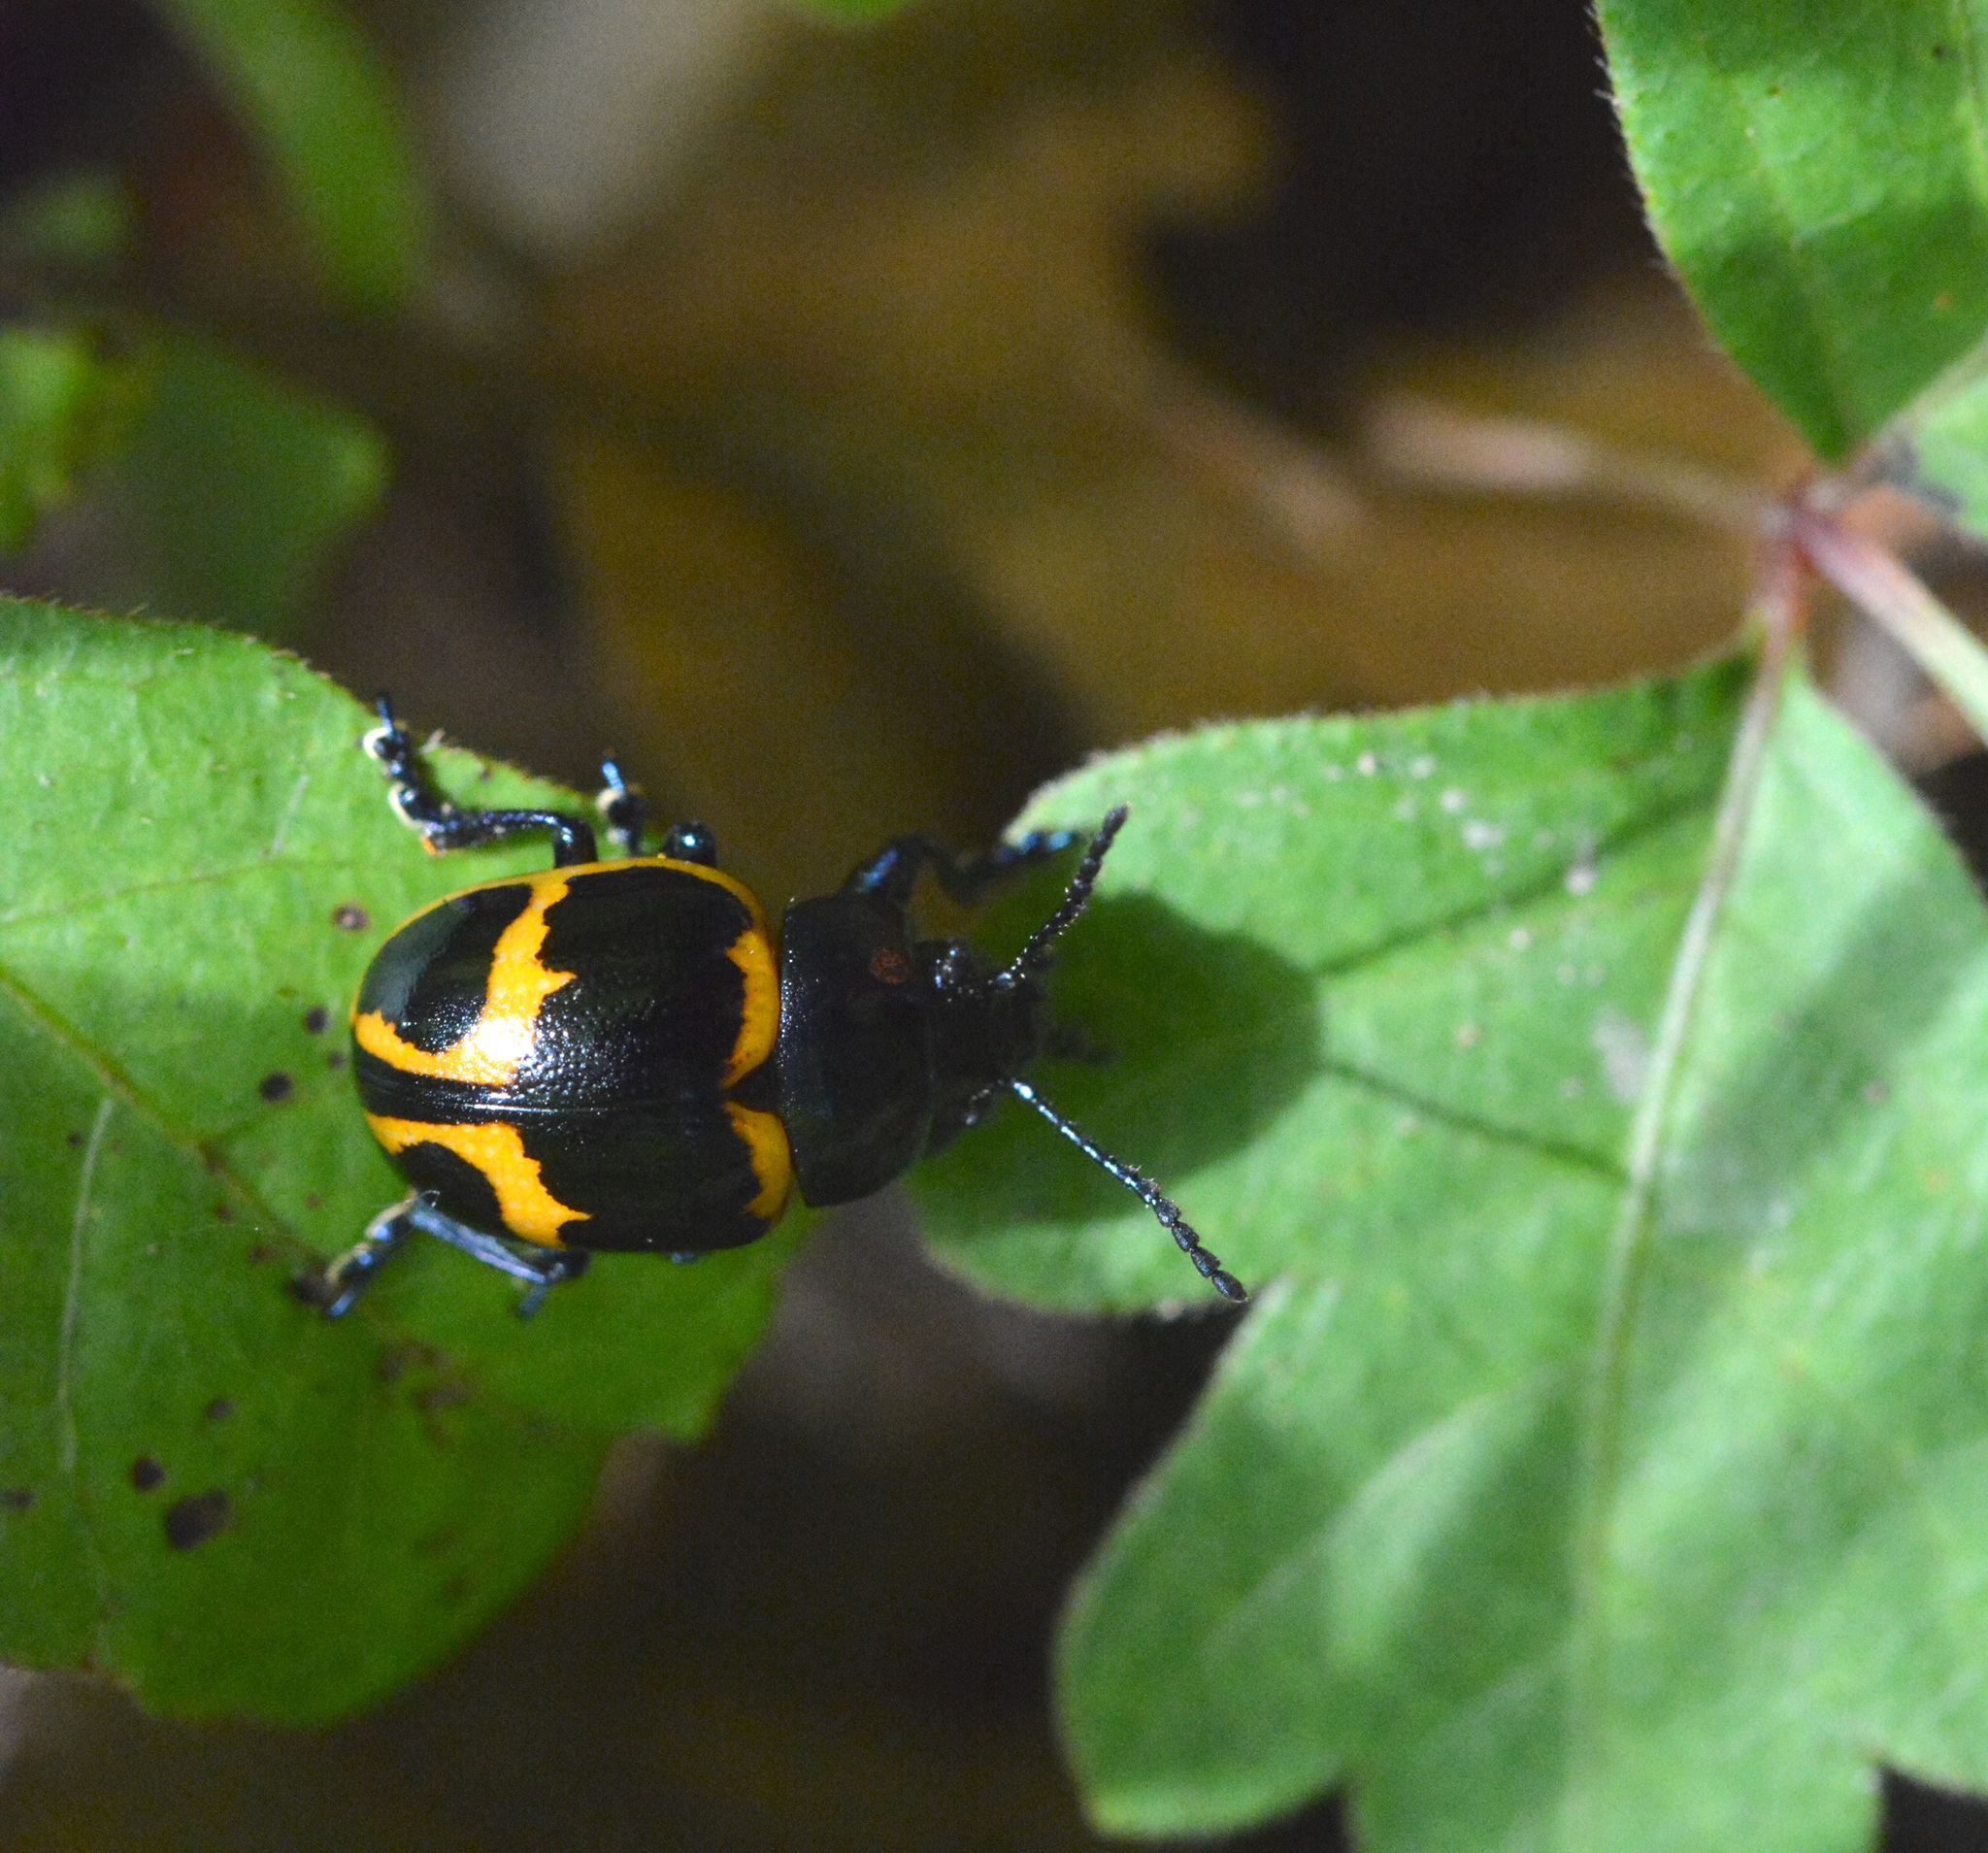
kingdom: Animalia
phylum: Arthropoda
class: Insecta
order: Coleoptera
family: Chrysomelidae
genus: Labidomera
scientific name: Labidomera clivicollis
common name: Swamp milkweed leaf beetle
